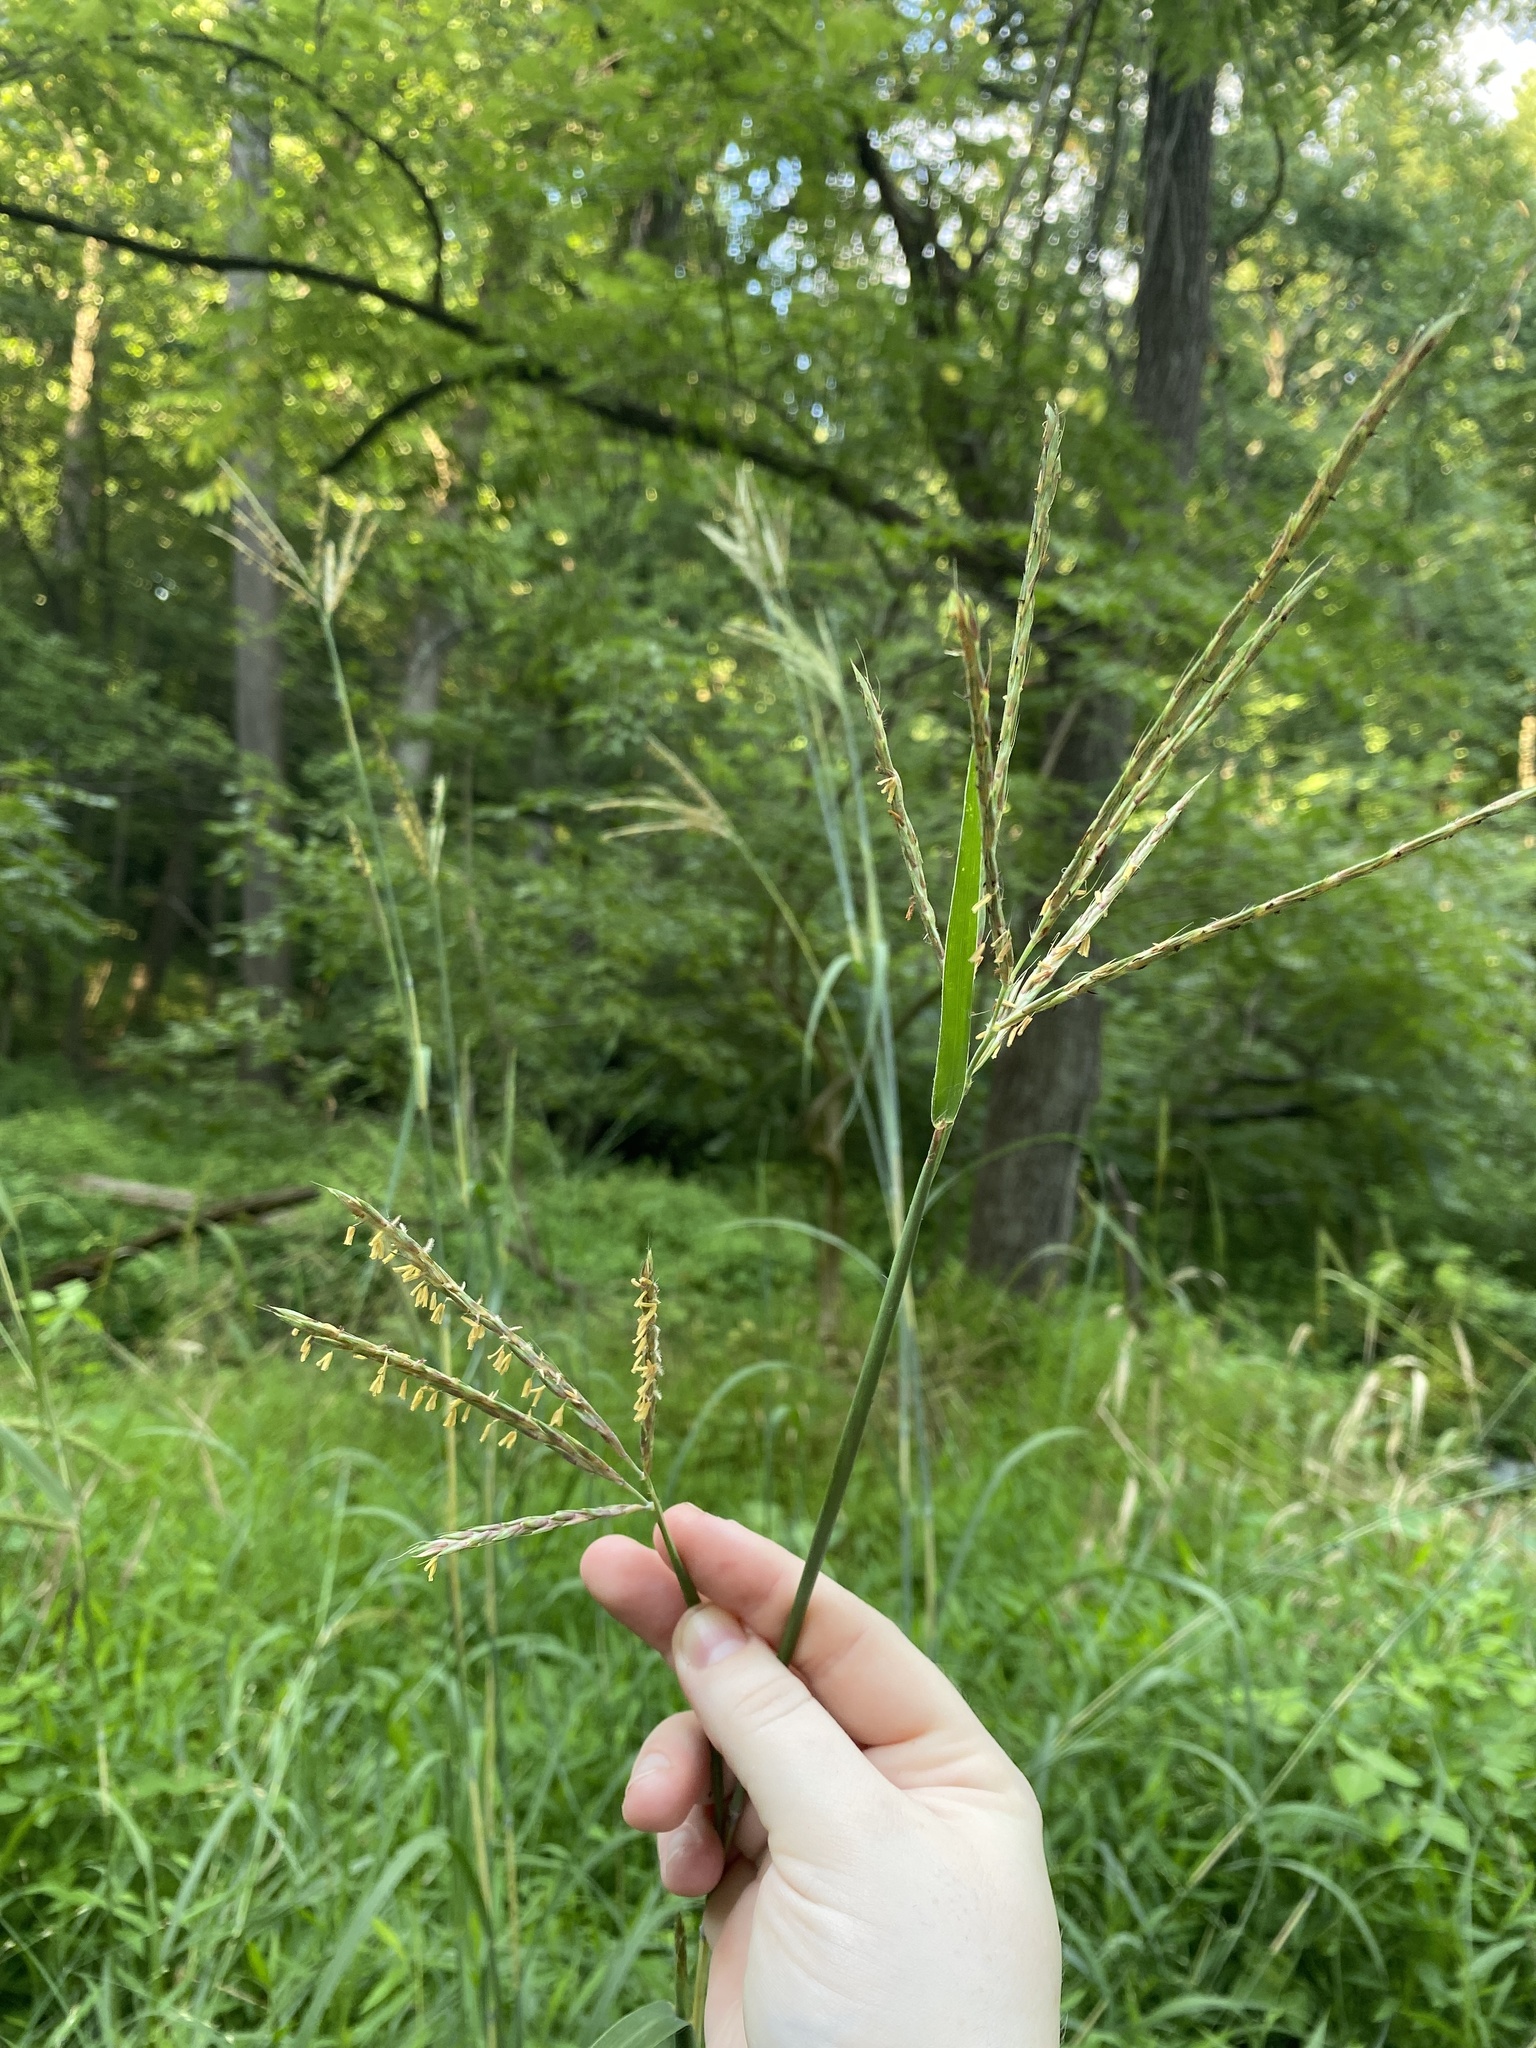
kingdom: Plantae
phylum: Tracheophyta
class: Liliopsida
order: Poales
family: Poaceae
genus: Andropogon
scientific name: Andropogon gerardi
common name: Big bluestem
